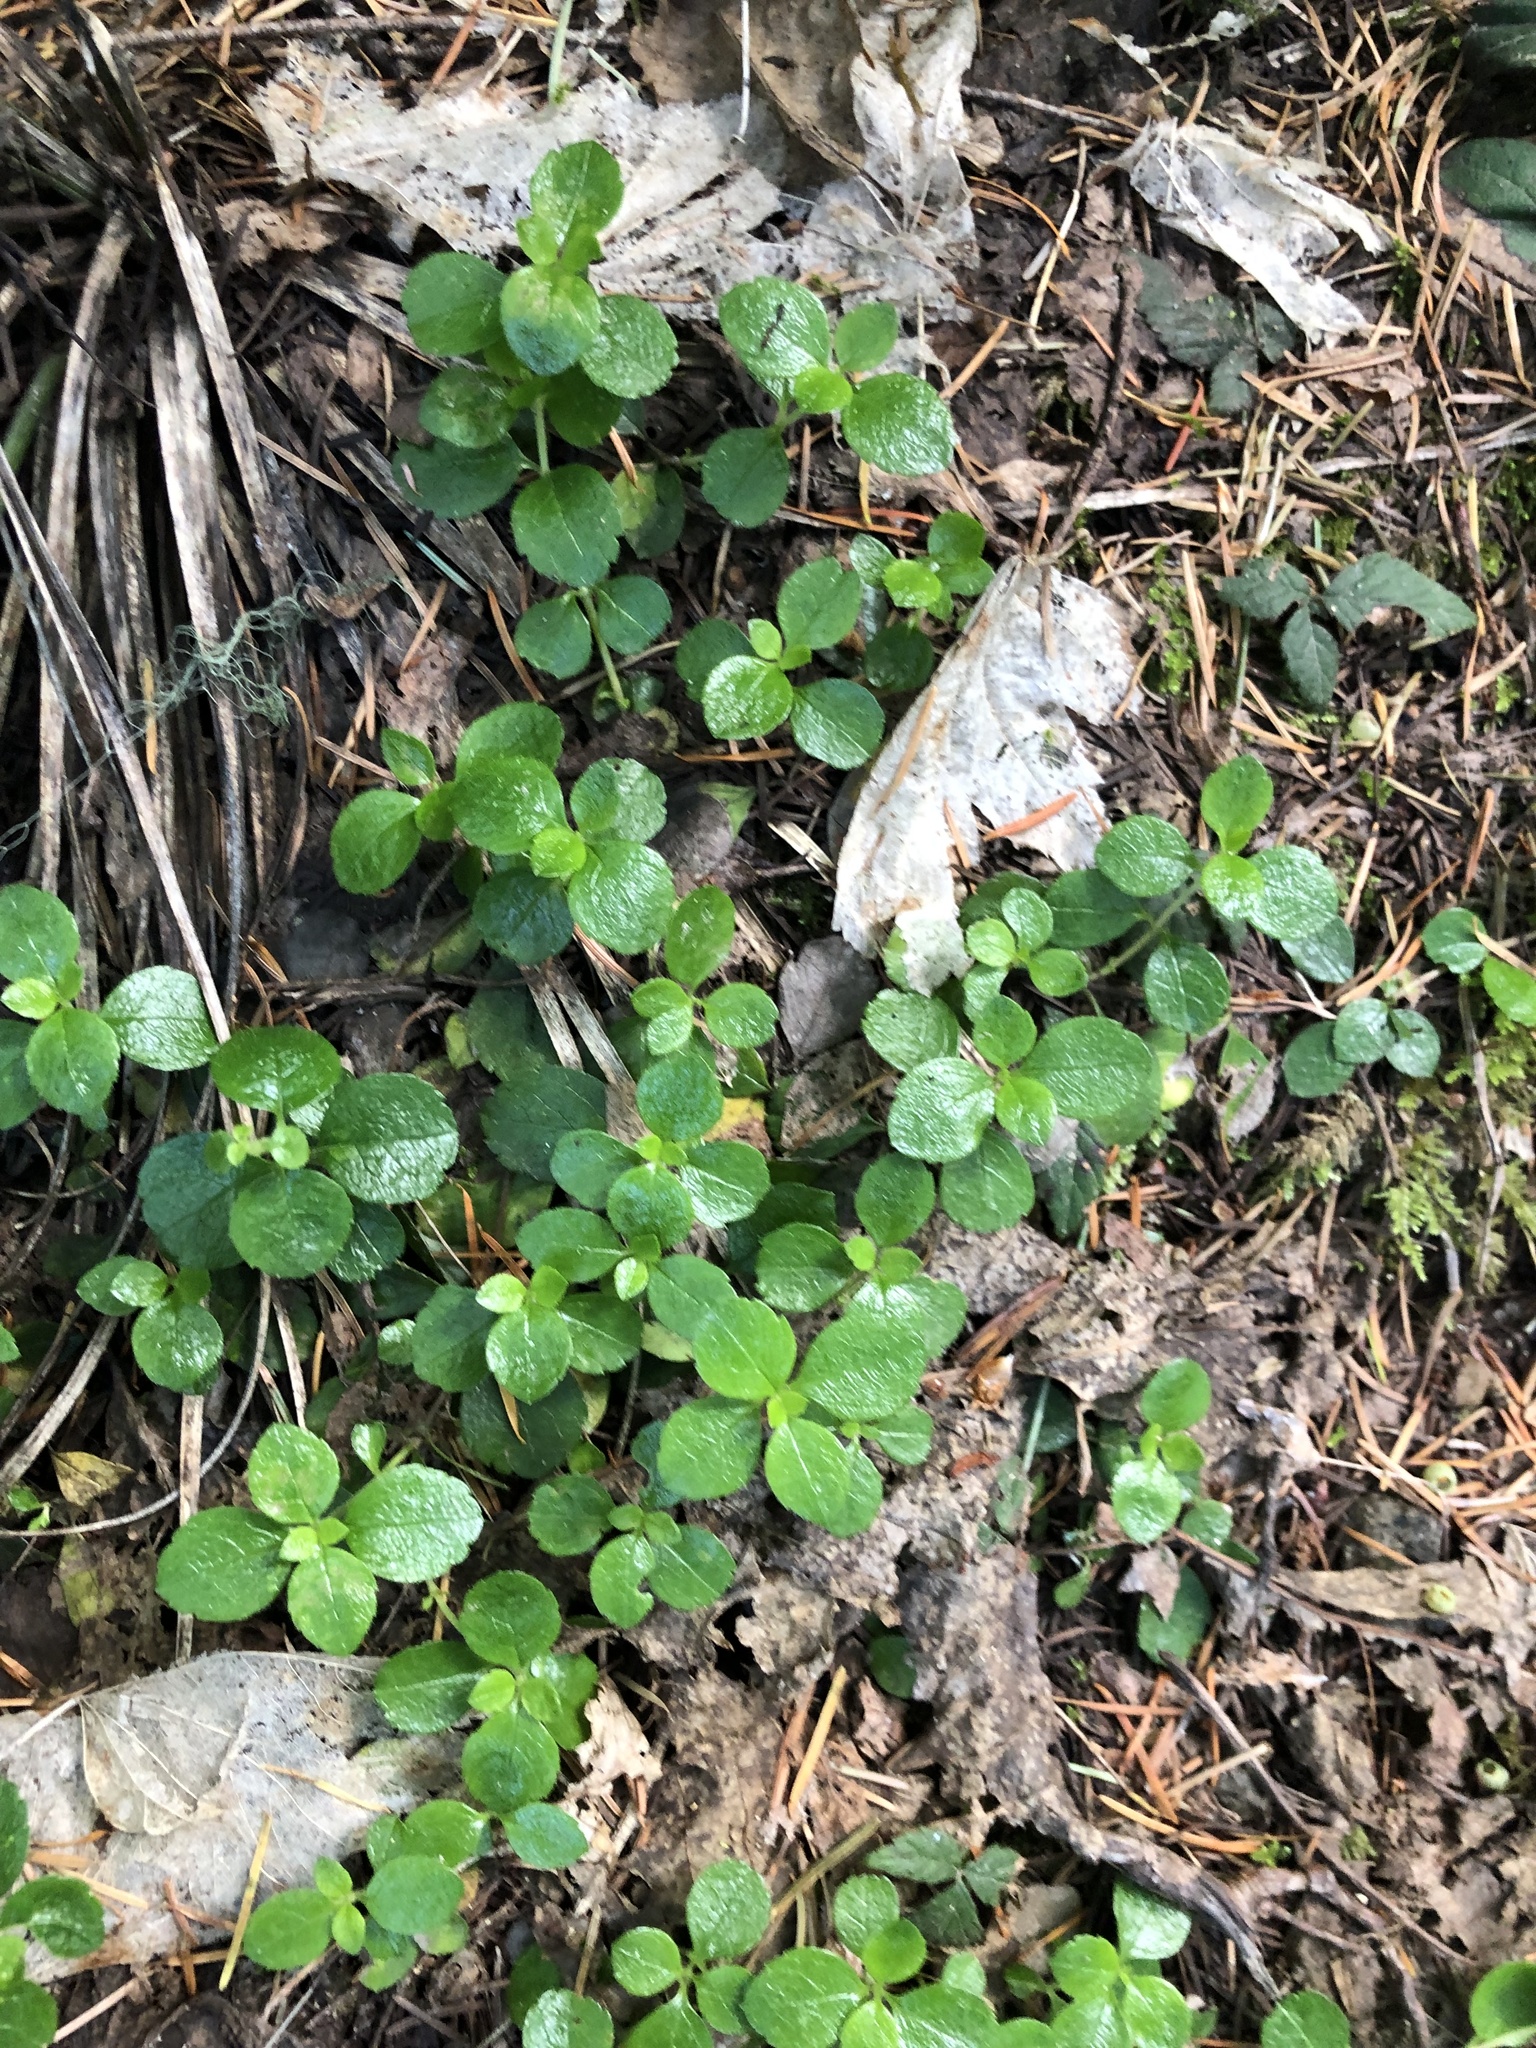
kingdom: Plantae
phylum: Tracheophyta
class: Magnoliopsida
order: Dipsacales
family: Caprifoliaceae
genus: Linnaea
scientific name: Linnaea borealis
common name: Twinflower
